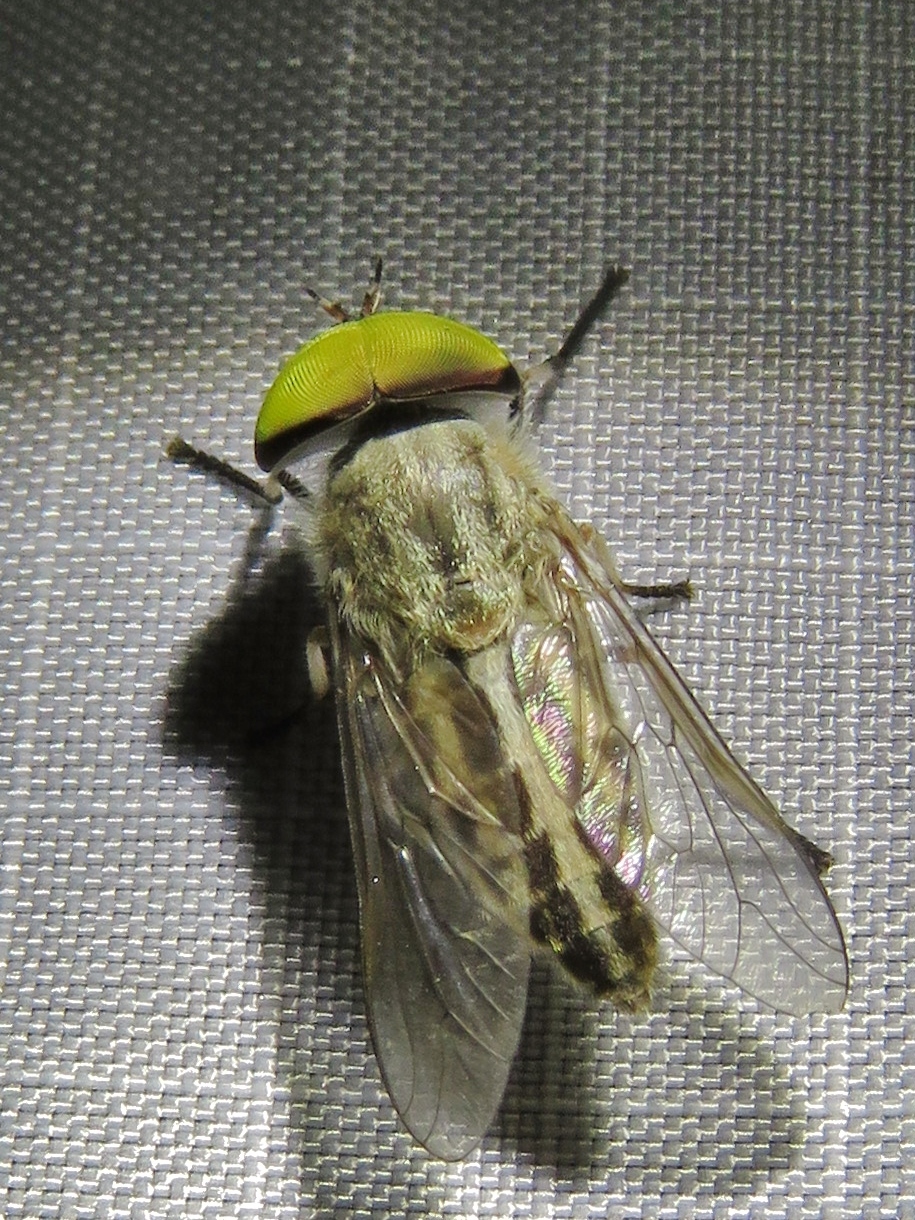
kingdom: Animalia
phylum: Arthropoda
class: Insecta
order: Diptera
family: Tabanidae
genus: Tabanus
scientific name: Tabanus lineola
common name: Striped horse fly
